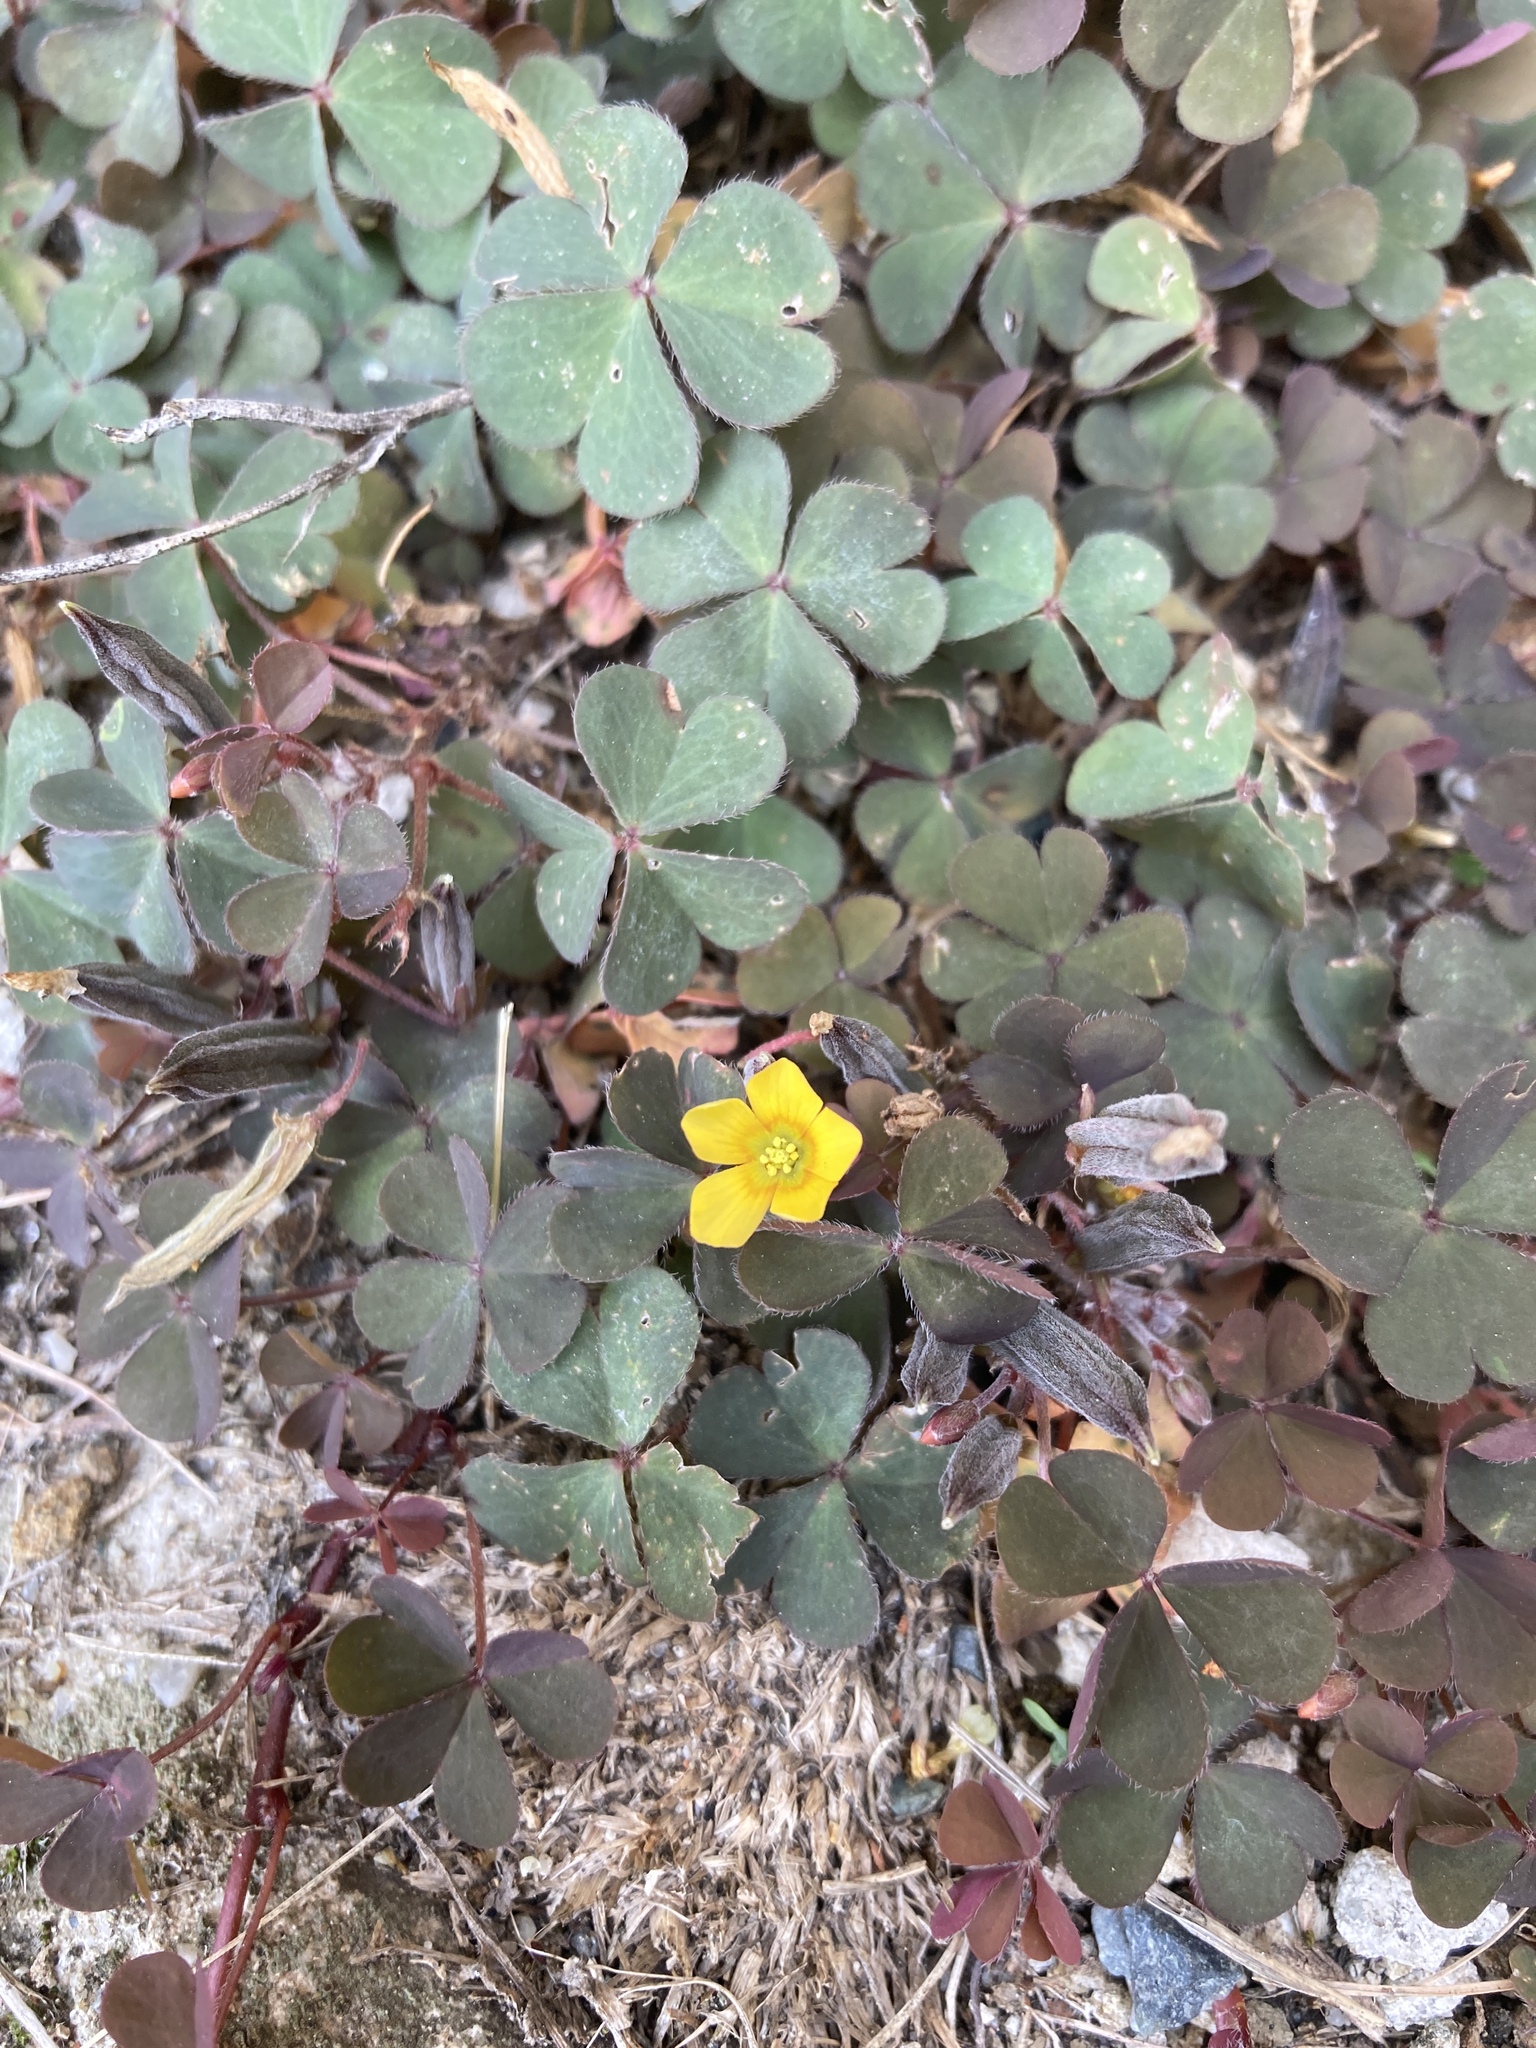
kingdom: Plantae
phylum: Tracheophyta
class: Magnoliopsida
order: Oxalidales
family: Oxalidaceae
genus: Oxalis
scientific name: Oxalis corniculata
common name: Procumbent yellow-sorrel
